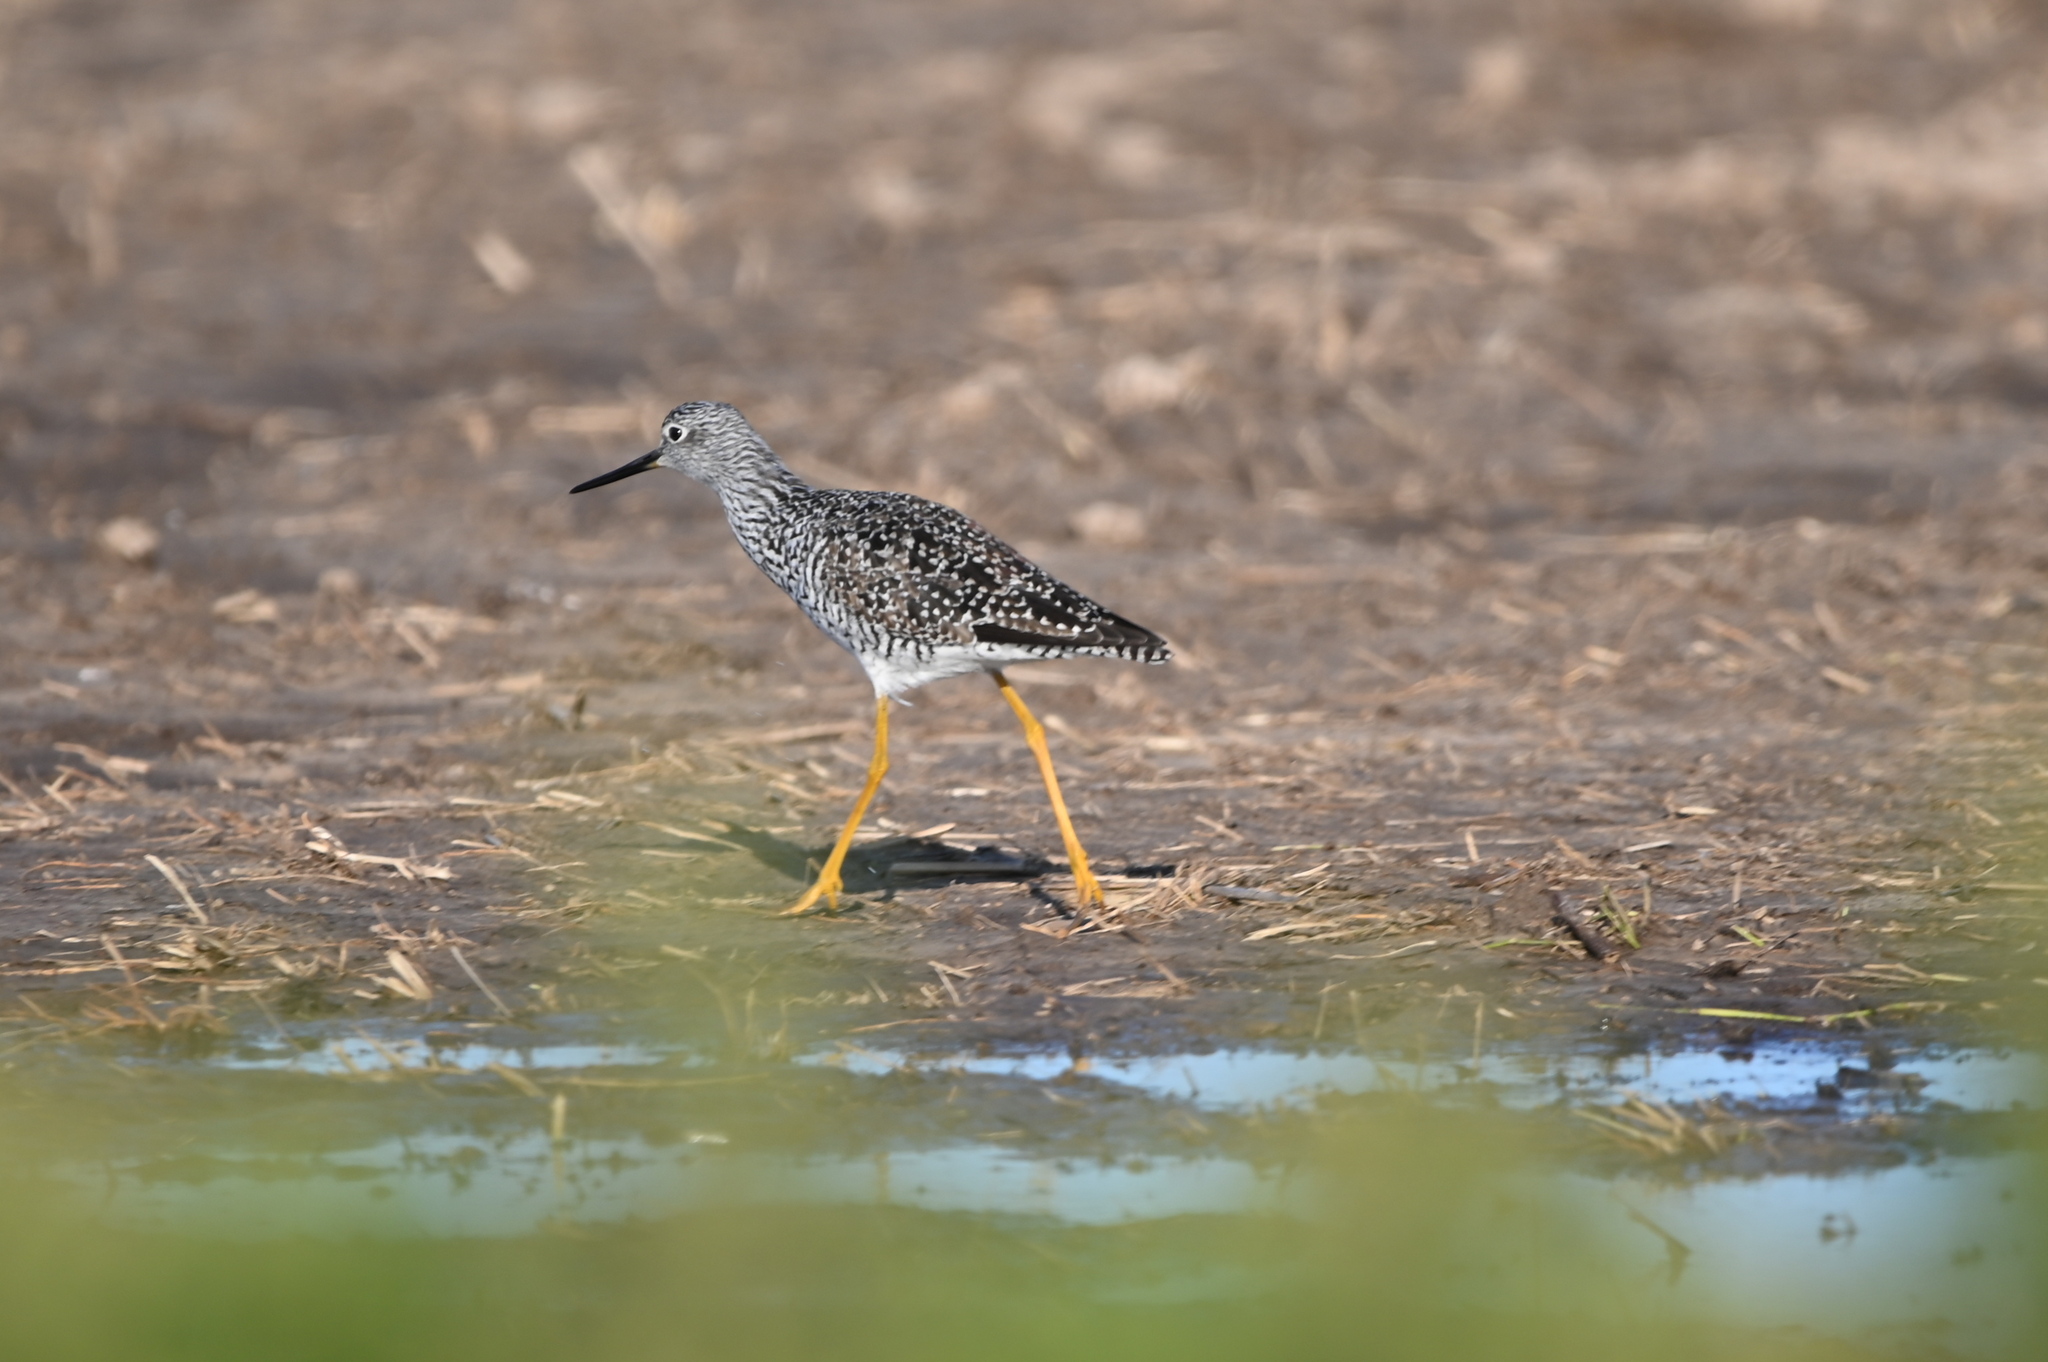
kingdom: Animalia
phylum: Chordata
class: Aves
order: Charadriiformes
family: Scolopacidae
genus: Tringa
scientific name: Tringa melanoleuca
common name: Greater yellowlegs
